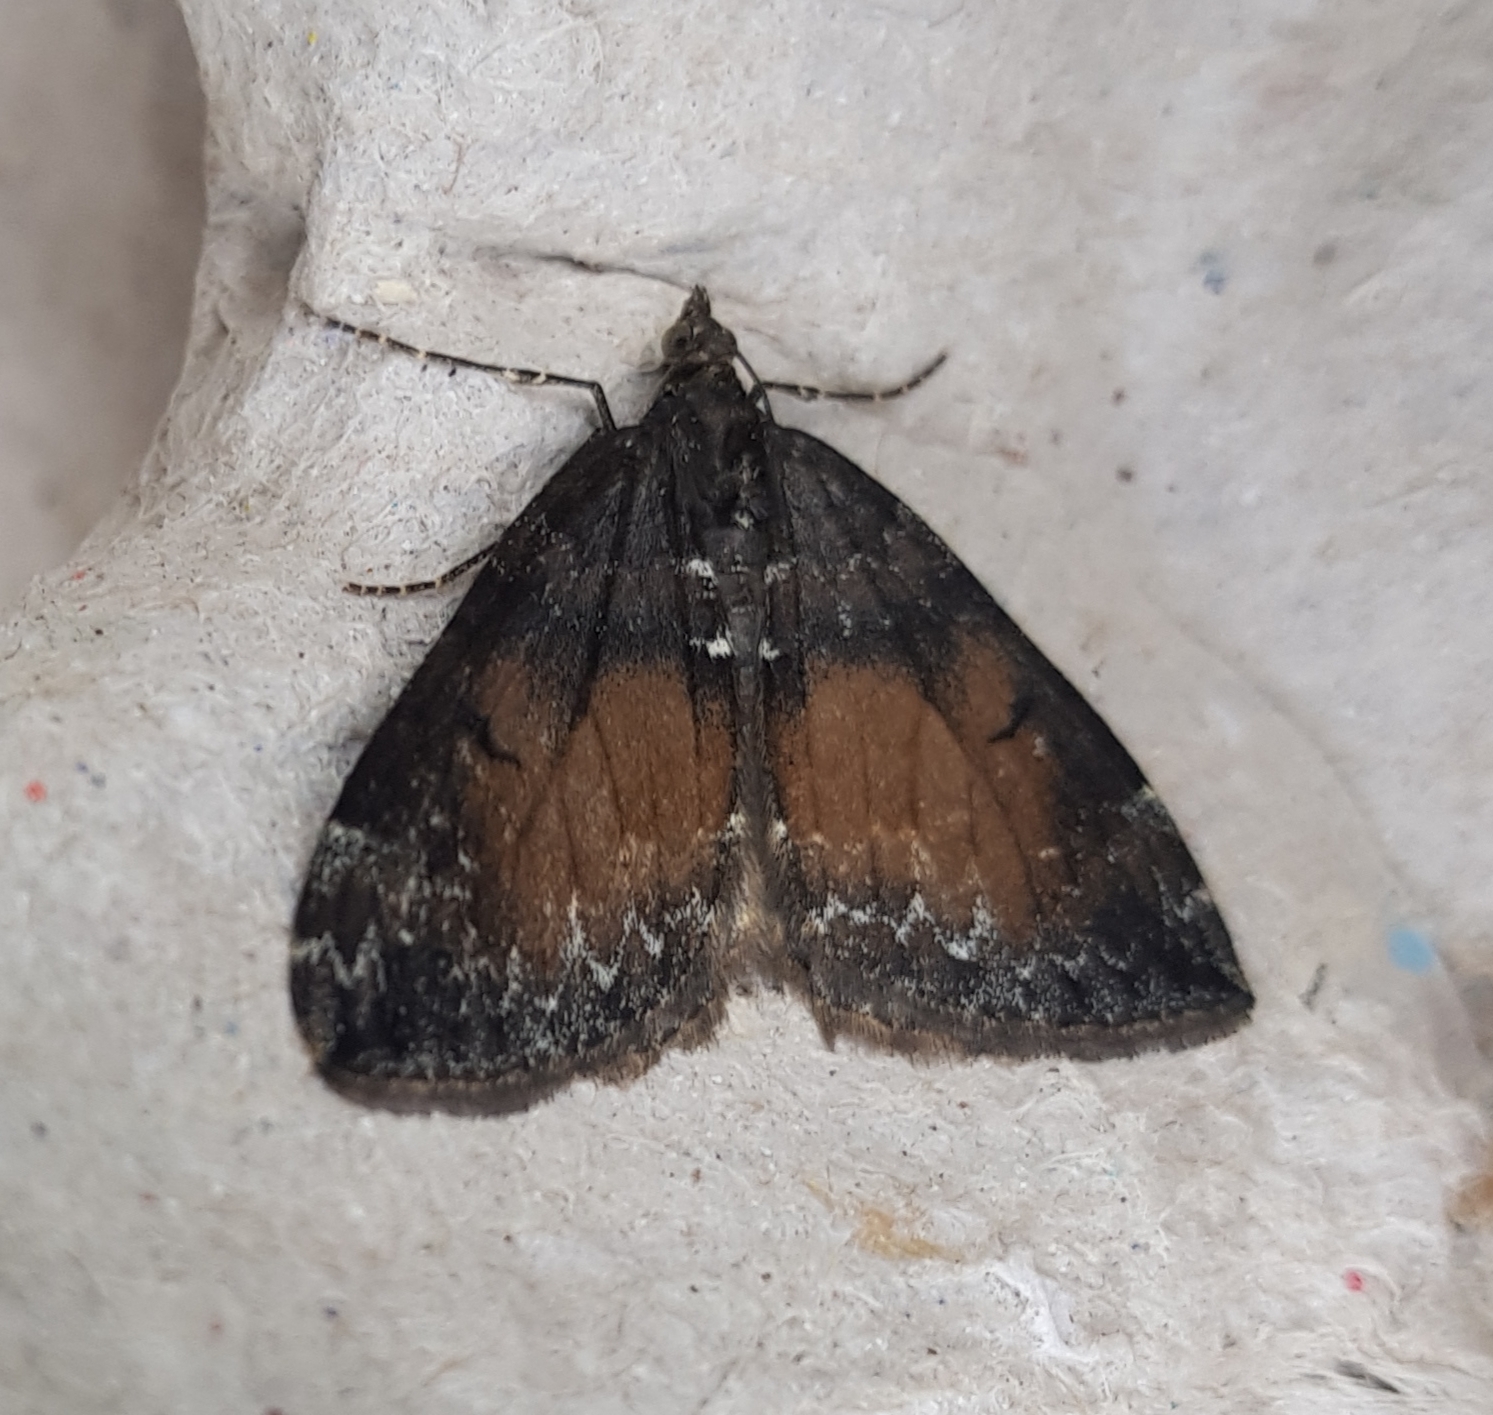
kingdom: Animalia
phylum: Arthropoda
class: Insecta
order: Lepidoptera
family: Geometridae
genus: Dysstroma
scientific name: Dysstroma truncata
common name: Common marbled carpet
